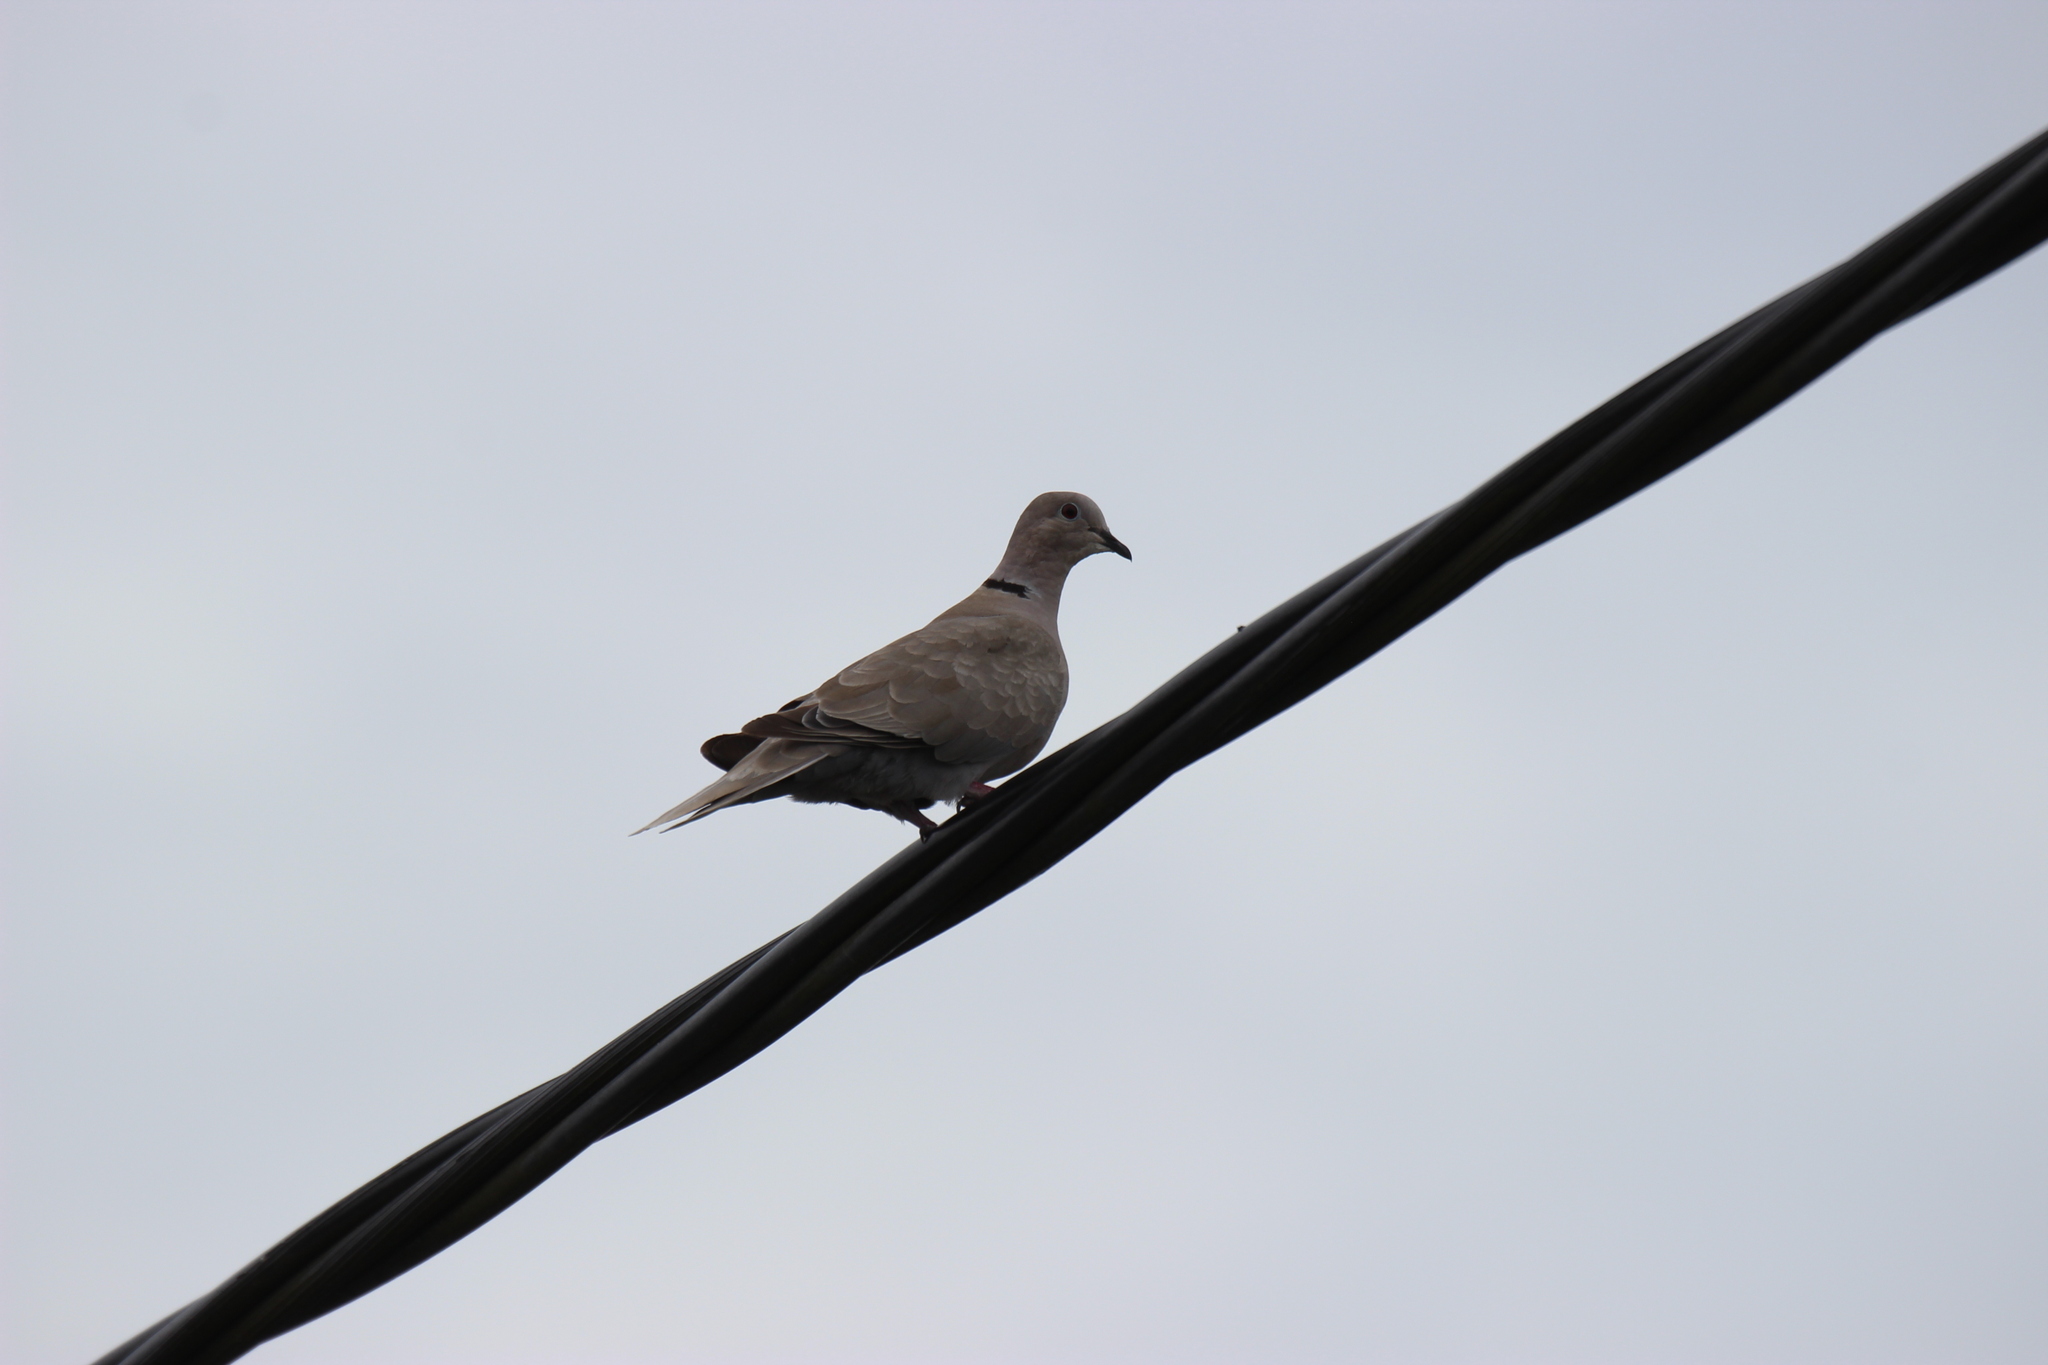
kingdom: Animalia
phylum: Chordata
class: Aves
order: Columbiformes
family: Columbidae
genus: Streptopelia
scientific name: Streptopelia decaocto
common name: Eurasian collared dove
